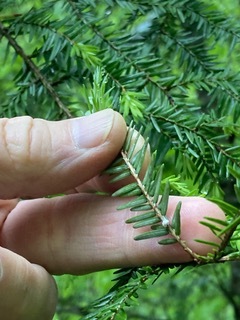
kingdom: Animalia
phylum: Arthropoda
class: Insecta
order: Hemiptera
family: Adelgidae
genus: Adelges
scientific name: Adelges tsugae
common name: Hemlock woolly adelgid
